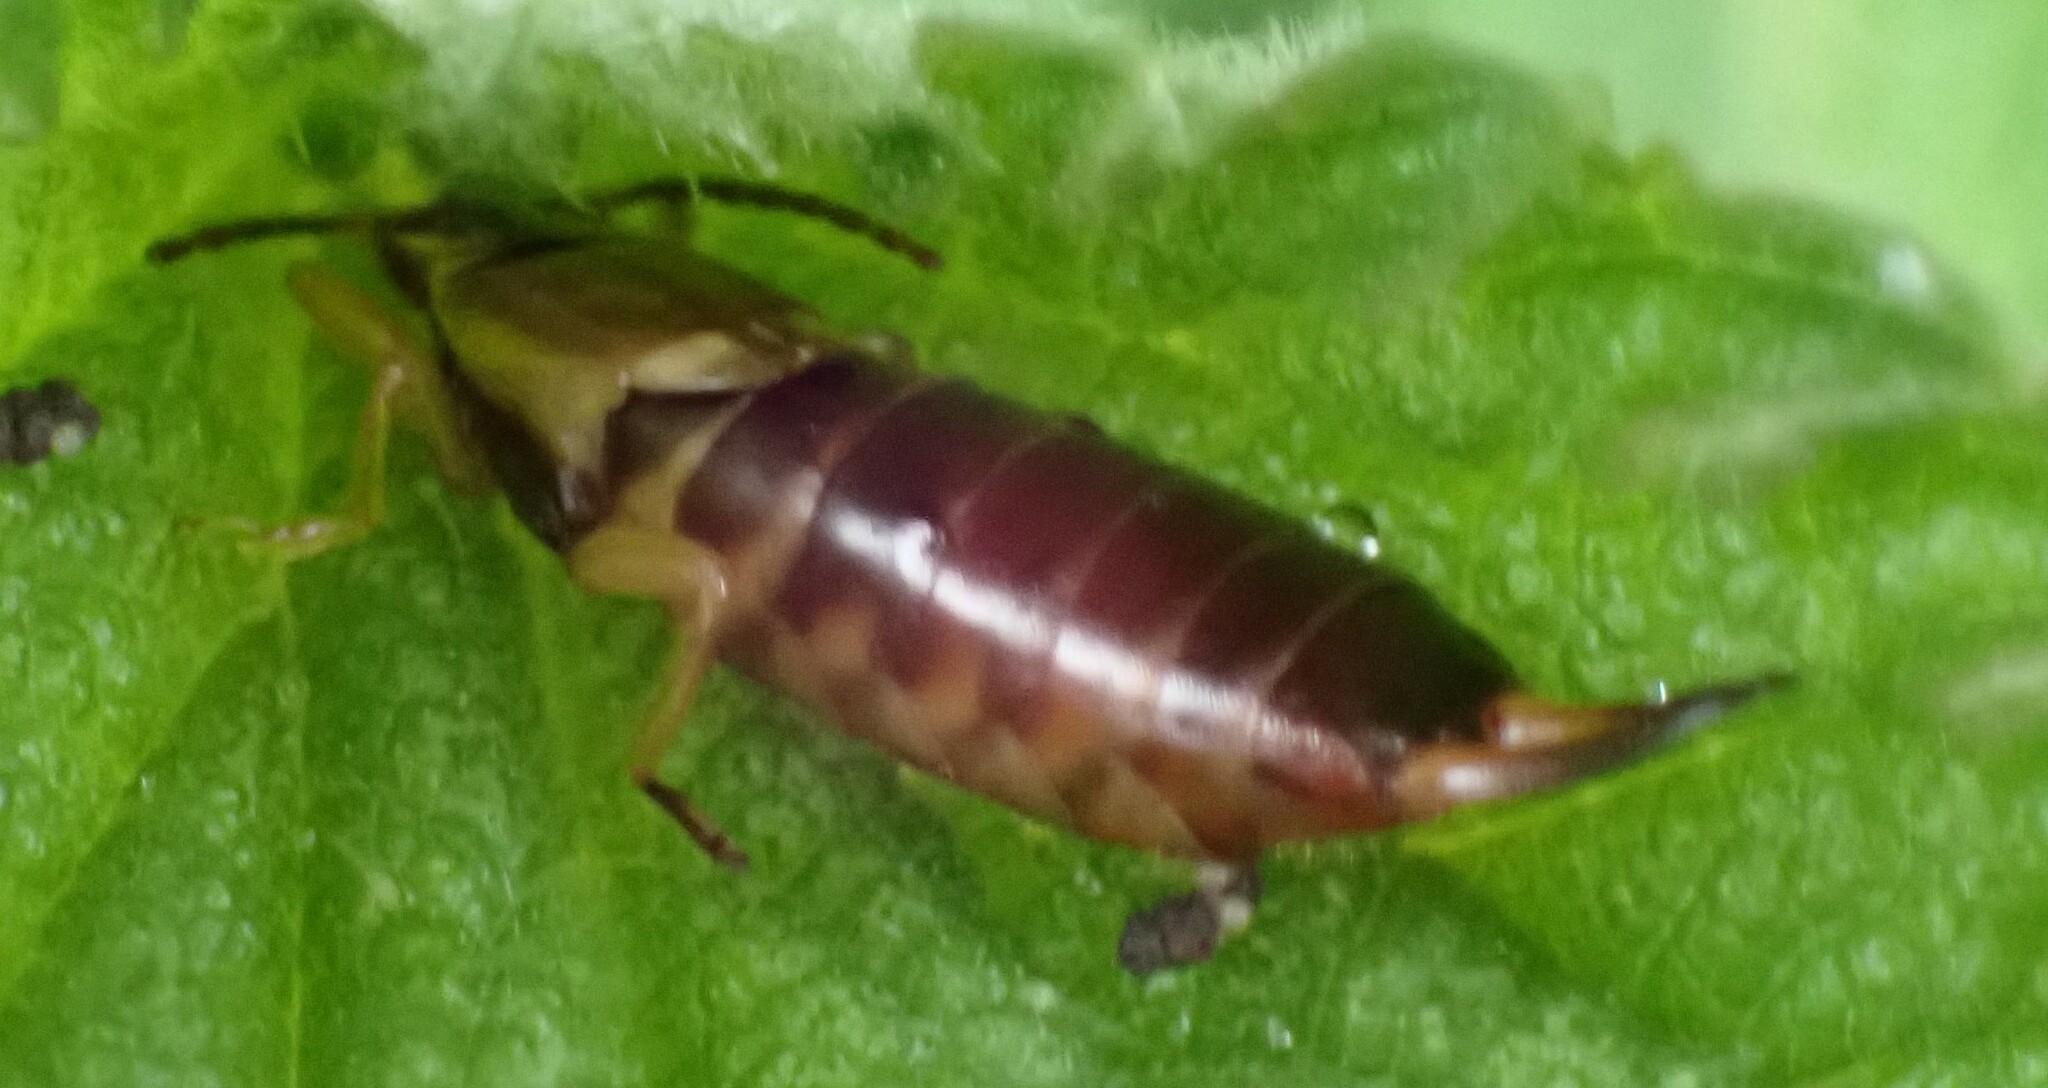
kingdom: Animalia
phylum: Arthropoda
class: Insecta
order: Dermaptera
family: Forficulidae
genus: Forficula
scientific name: Forficula
